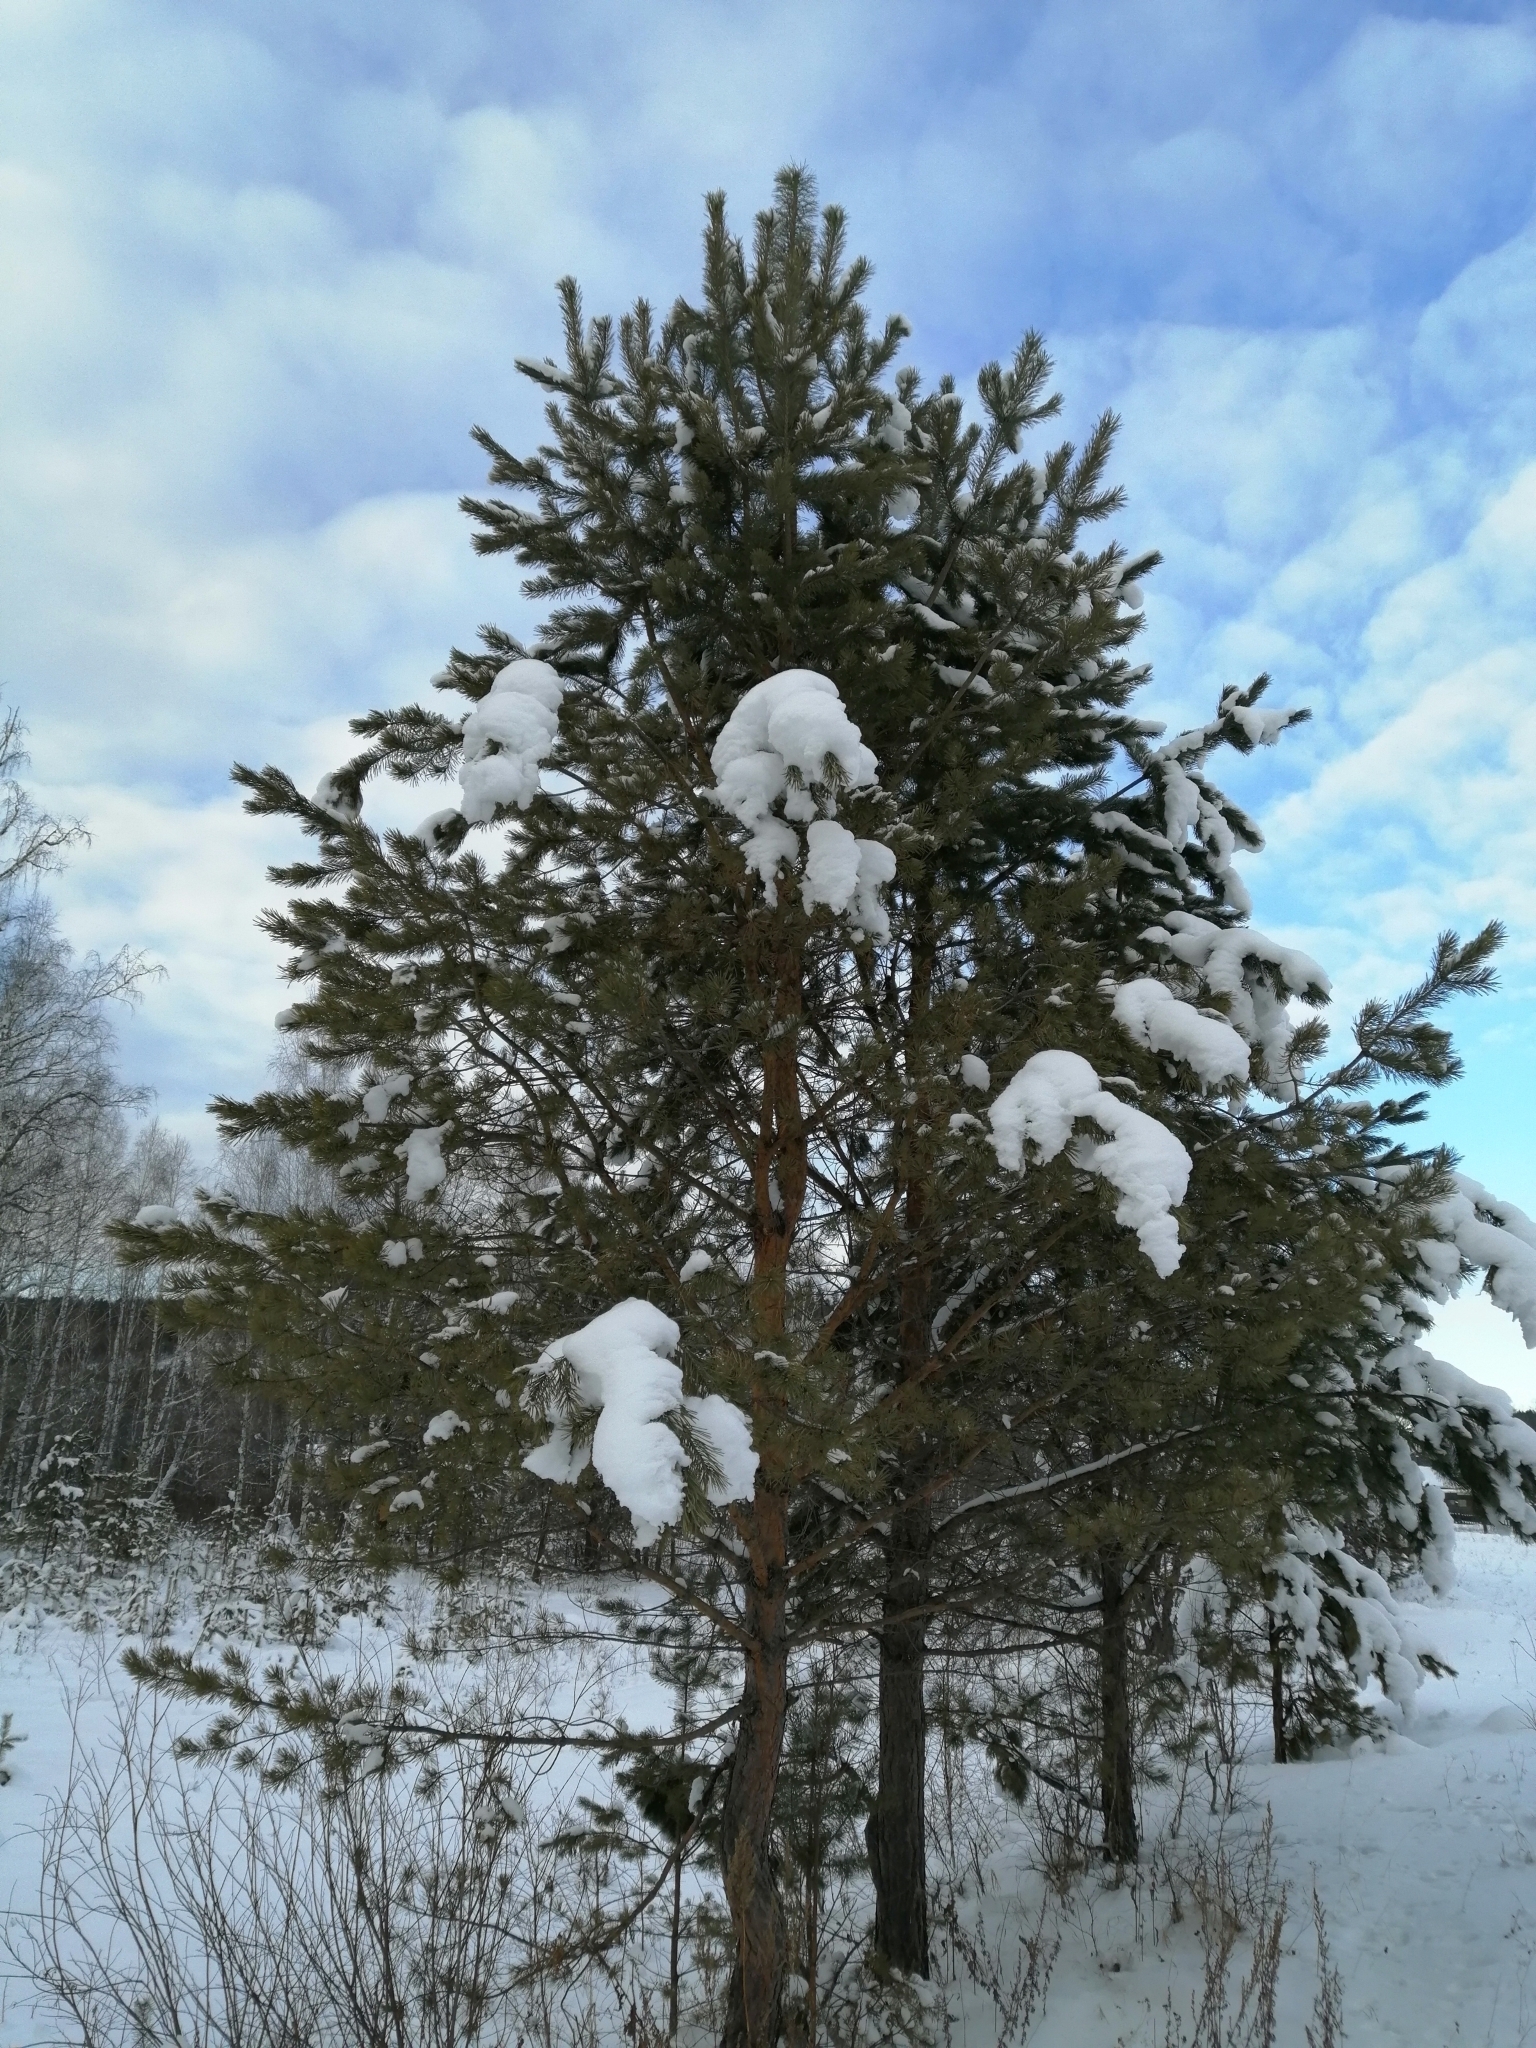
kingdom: Plantae
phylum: Tracheophyta
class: Pinopsida
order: Pinales
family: Pinaceae
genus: Pinus
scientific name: Pinus sylvestris
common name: Scots pine
